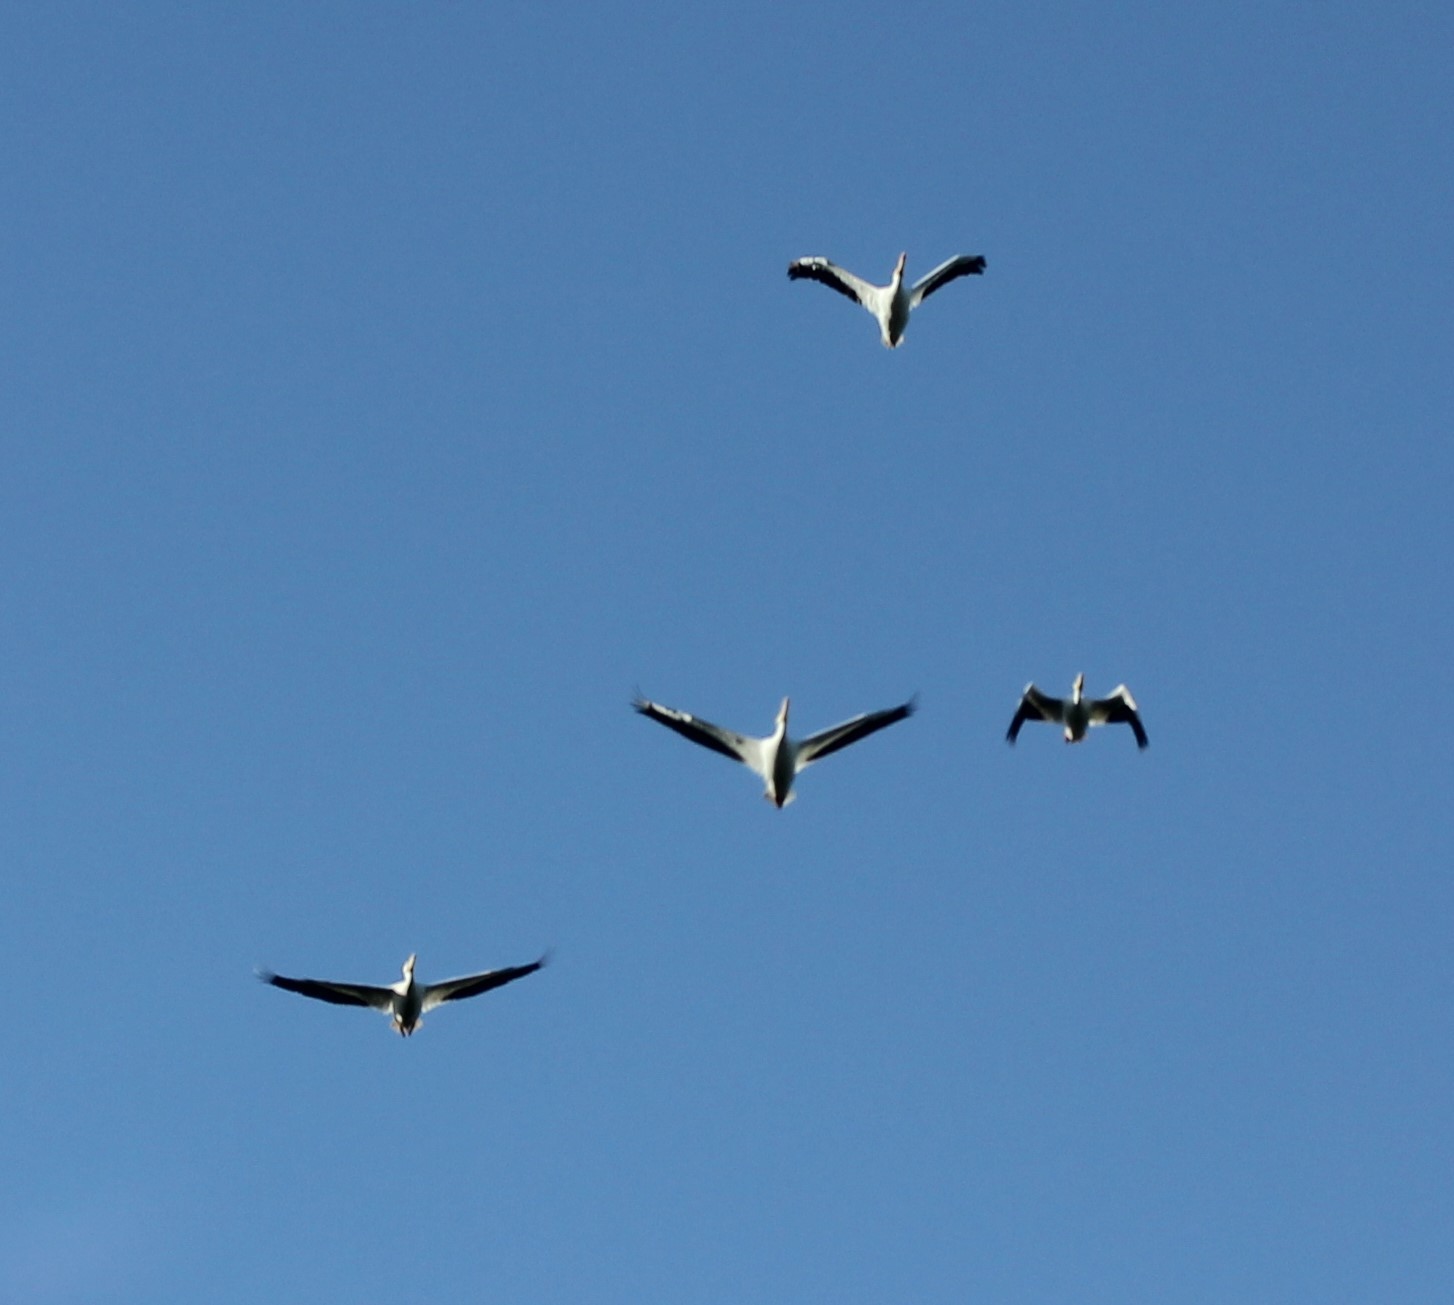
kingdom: Animalia
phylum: Chordata
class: Aves
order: Pelecaniformes
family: Pelecanidae
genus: Pelecanus
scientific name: Pelecanus erythrorhynchos
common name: American white pelican
